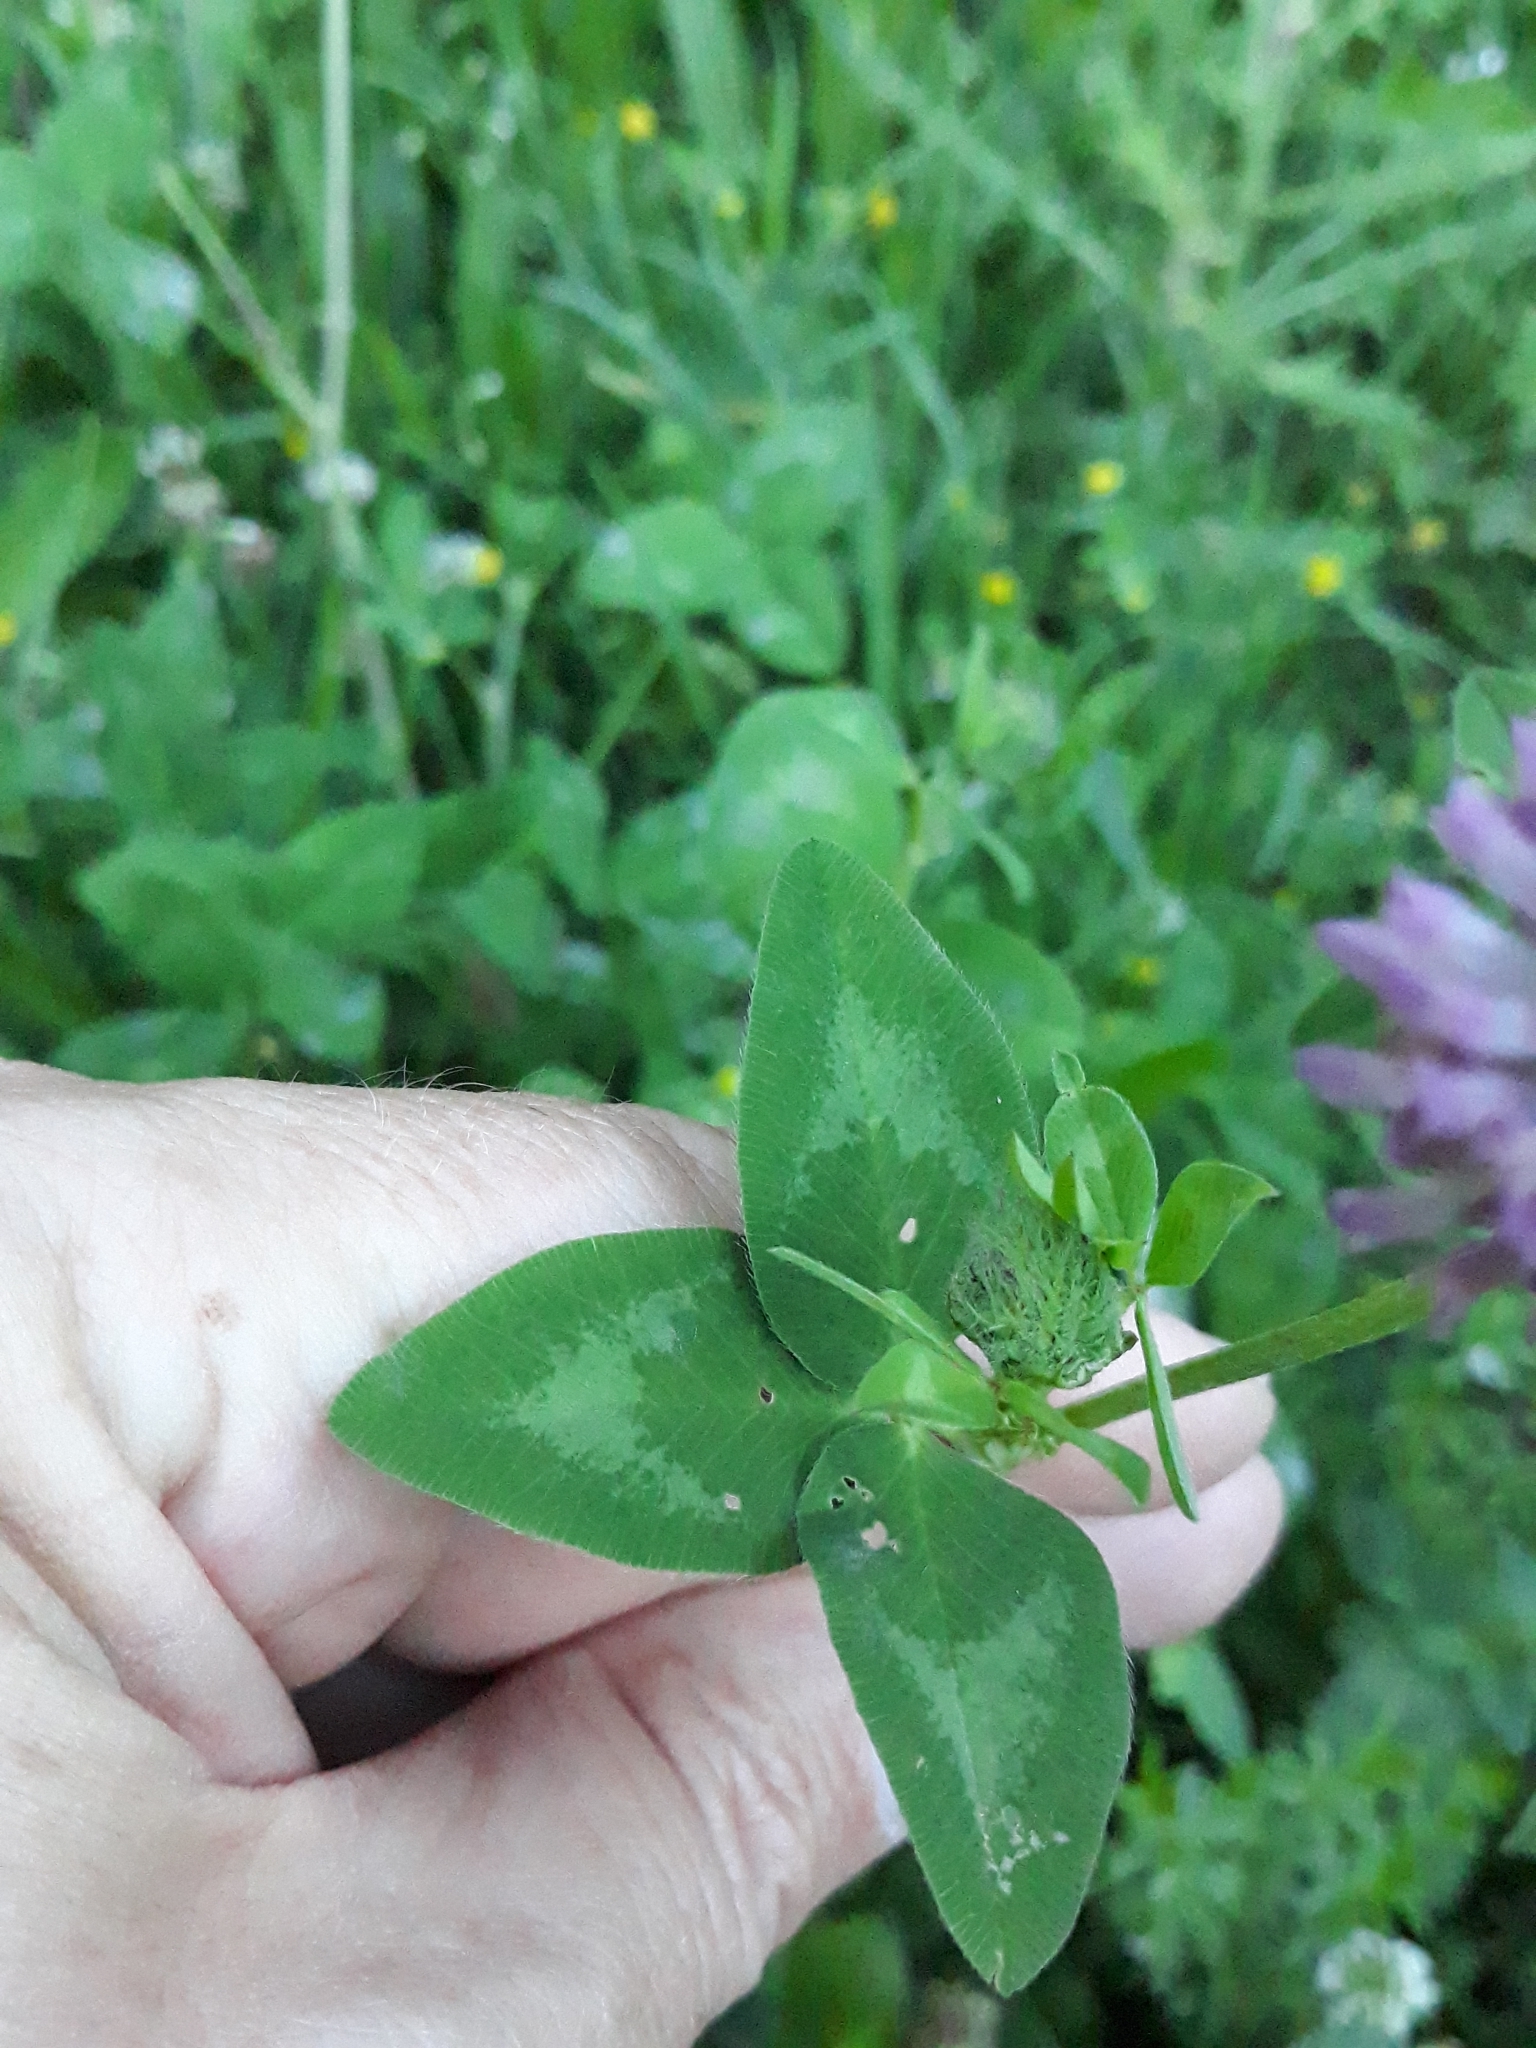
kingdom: Plantae
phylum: Tracheophyta
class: Magnoliopsida
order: Fabales
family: Fabaceae
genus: Trifolium
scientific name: Trifolium pratense
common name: Red clover
